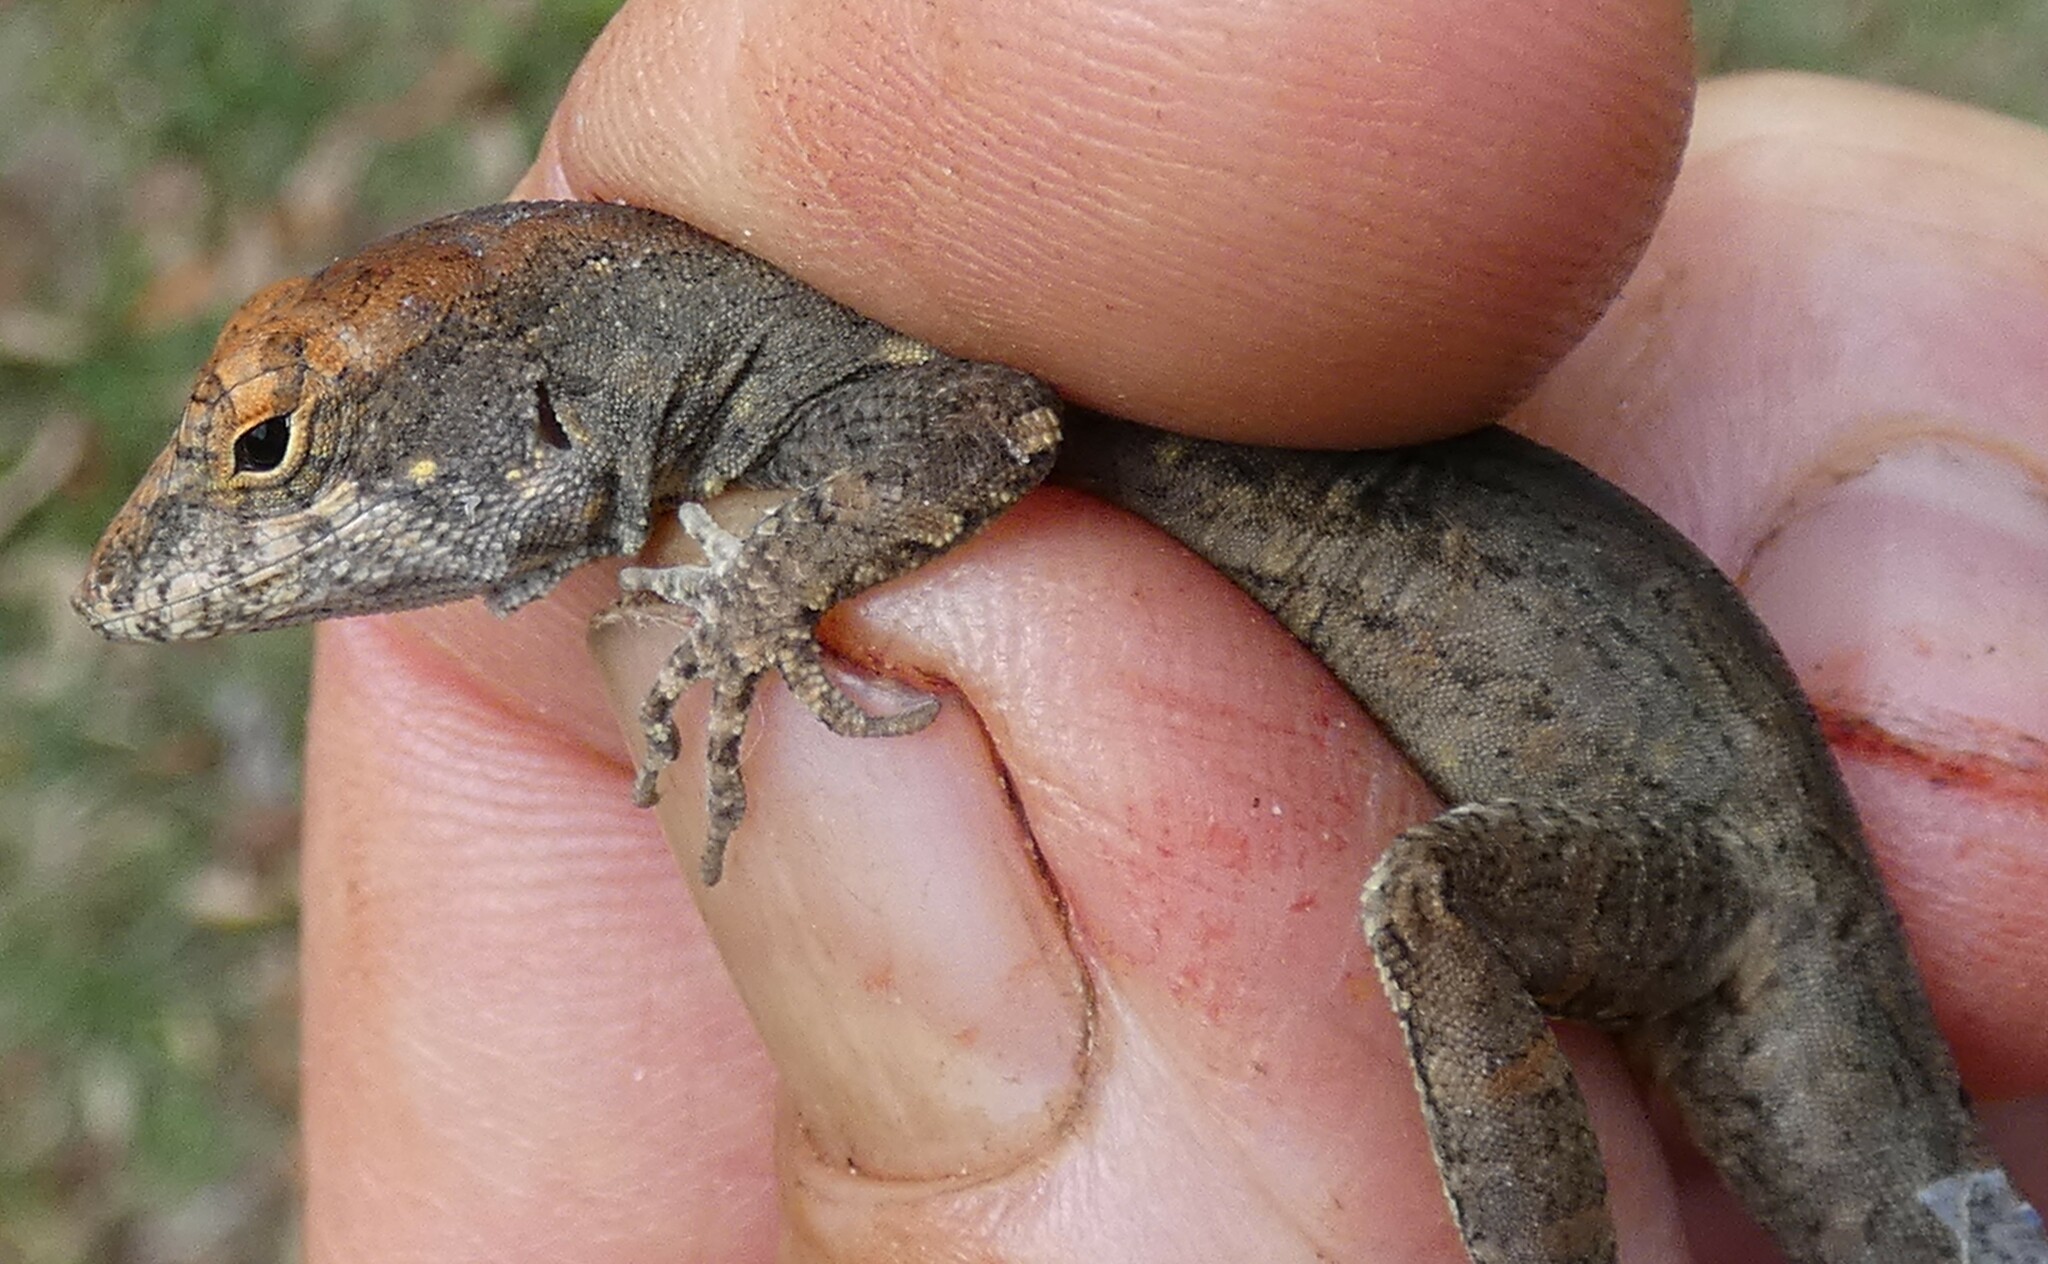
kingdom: Animalia
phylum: Chordata
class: Squamata
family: Dactyloidae
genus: Anolis
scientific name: Anolis sagrei
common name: Brown anole
